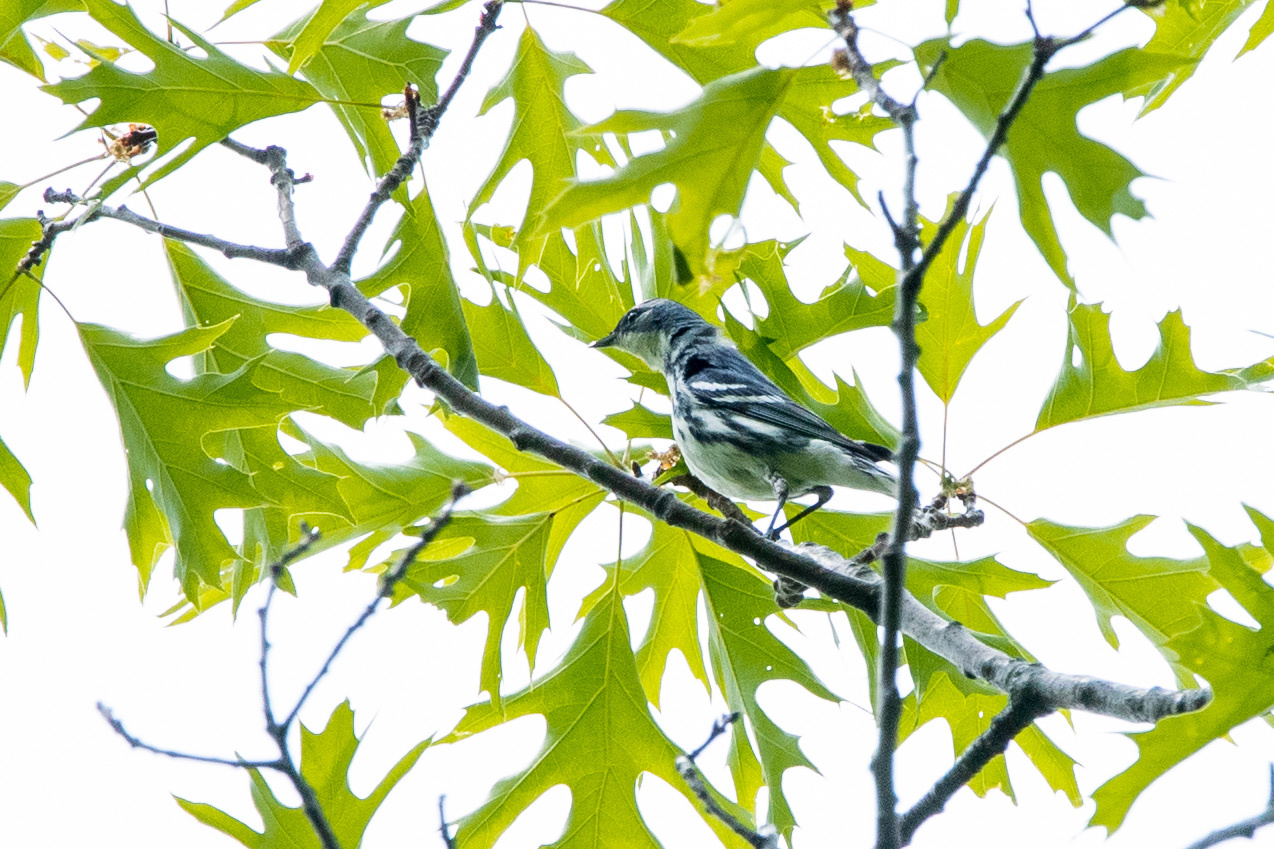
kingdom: Animalia
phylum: Chordata
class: Aves
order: Passeriformes
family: Parulidae
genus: Setophaga
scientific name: Setophaga cerulea
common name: Cerulean warbler
